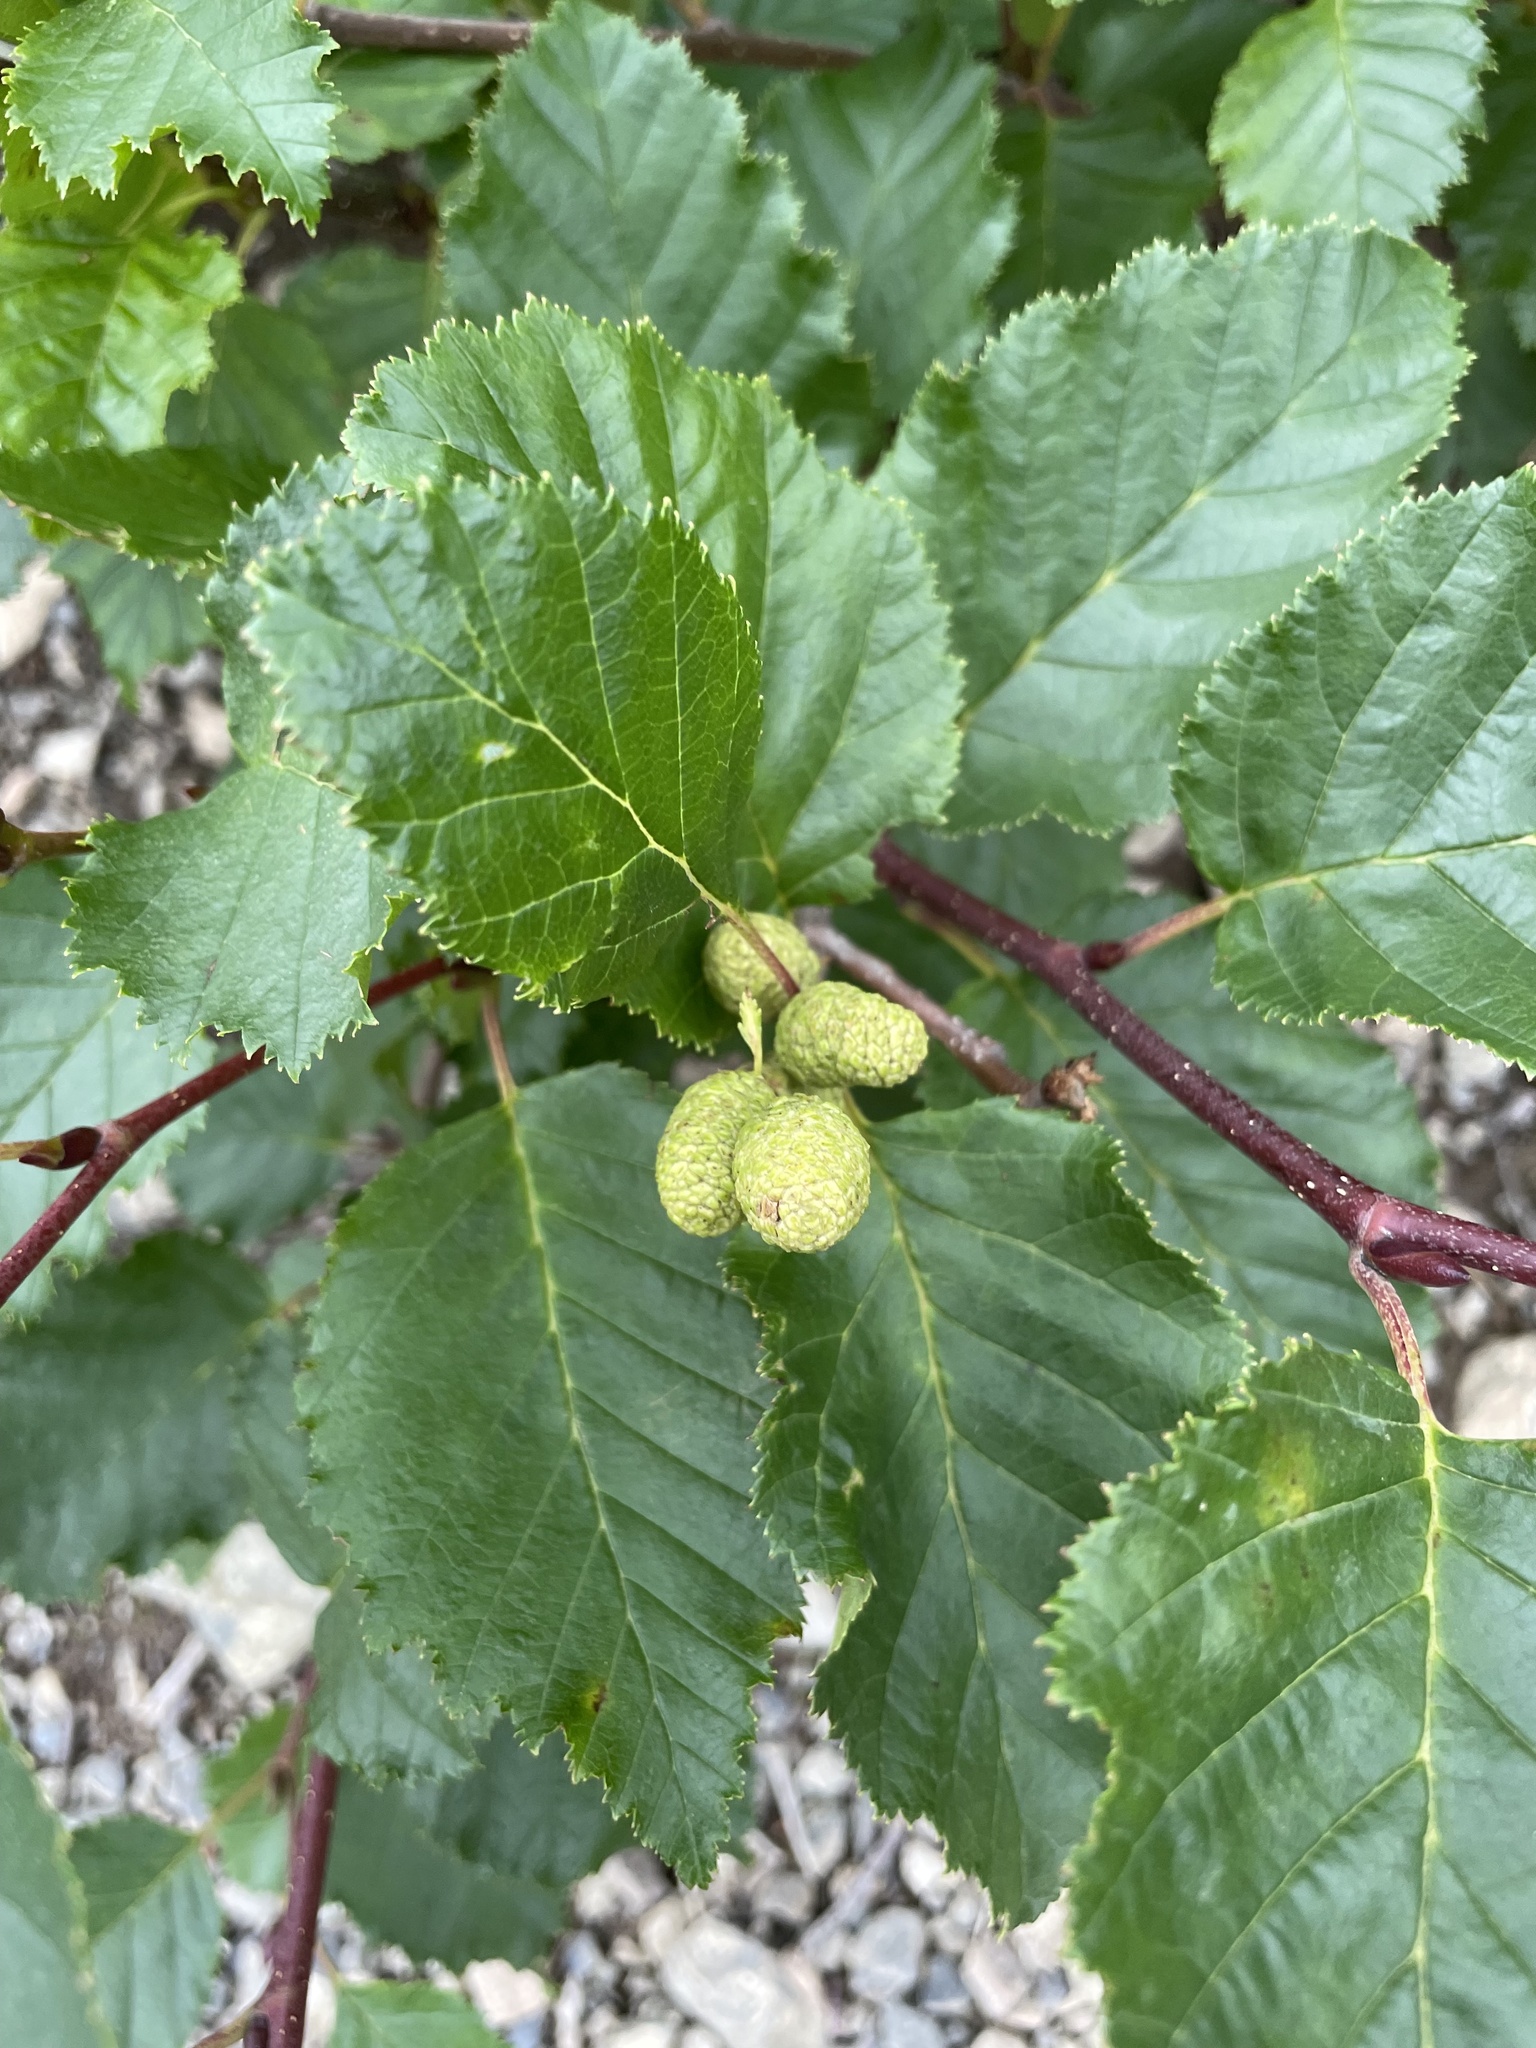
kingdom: Plantae
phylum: Tracheophyta
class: Magnoliopsida
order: Fagales
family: Betulaceae
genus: Alnus
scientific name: Alnus alnobetula
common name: Green alder
